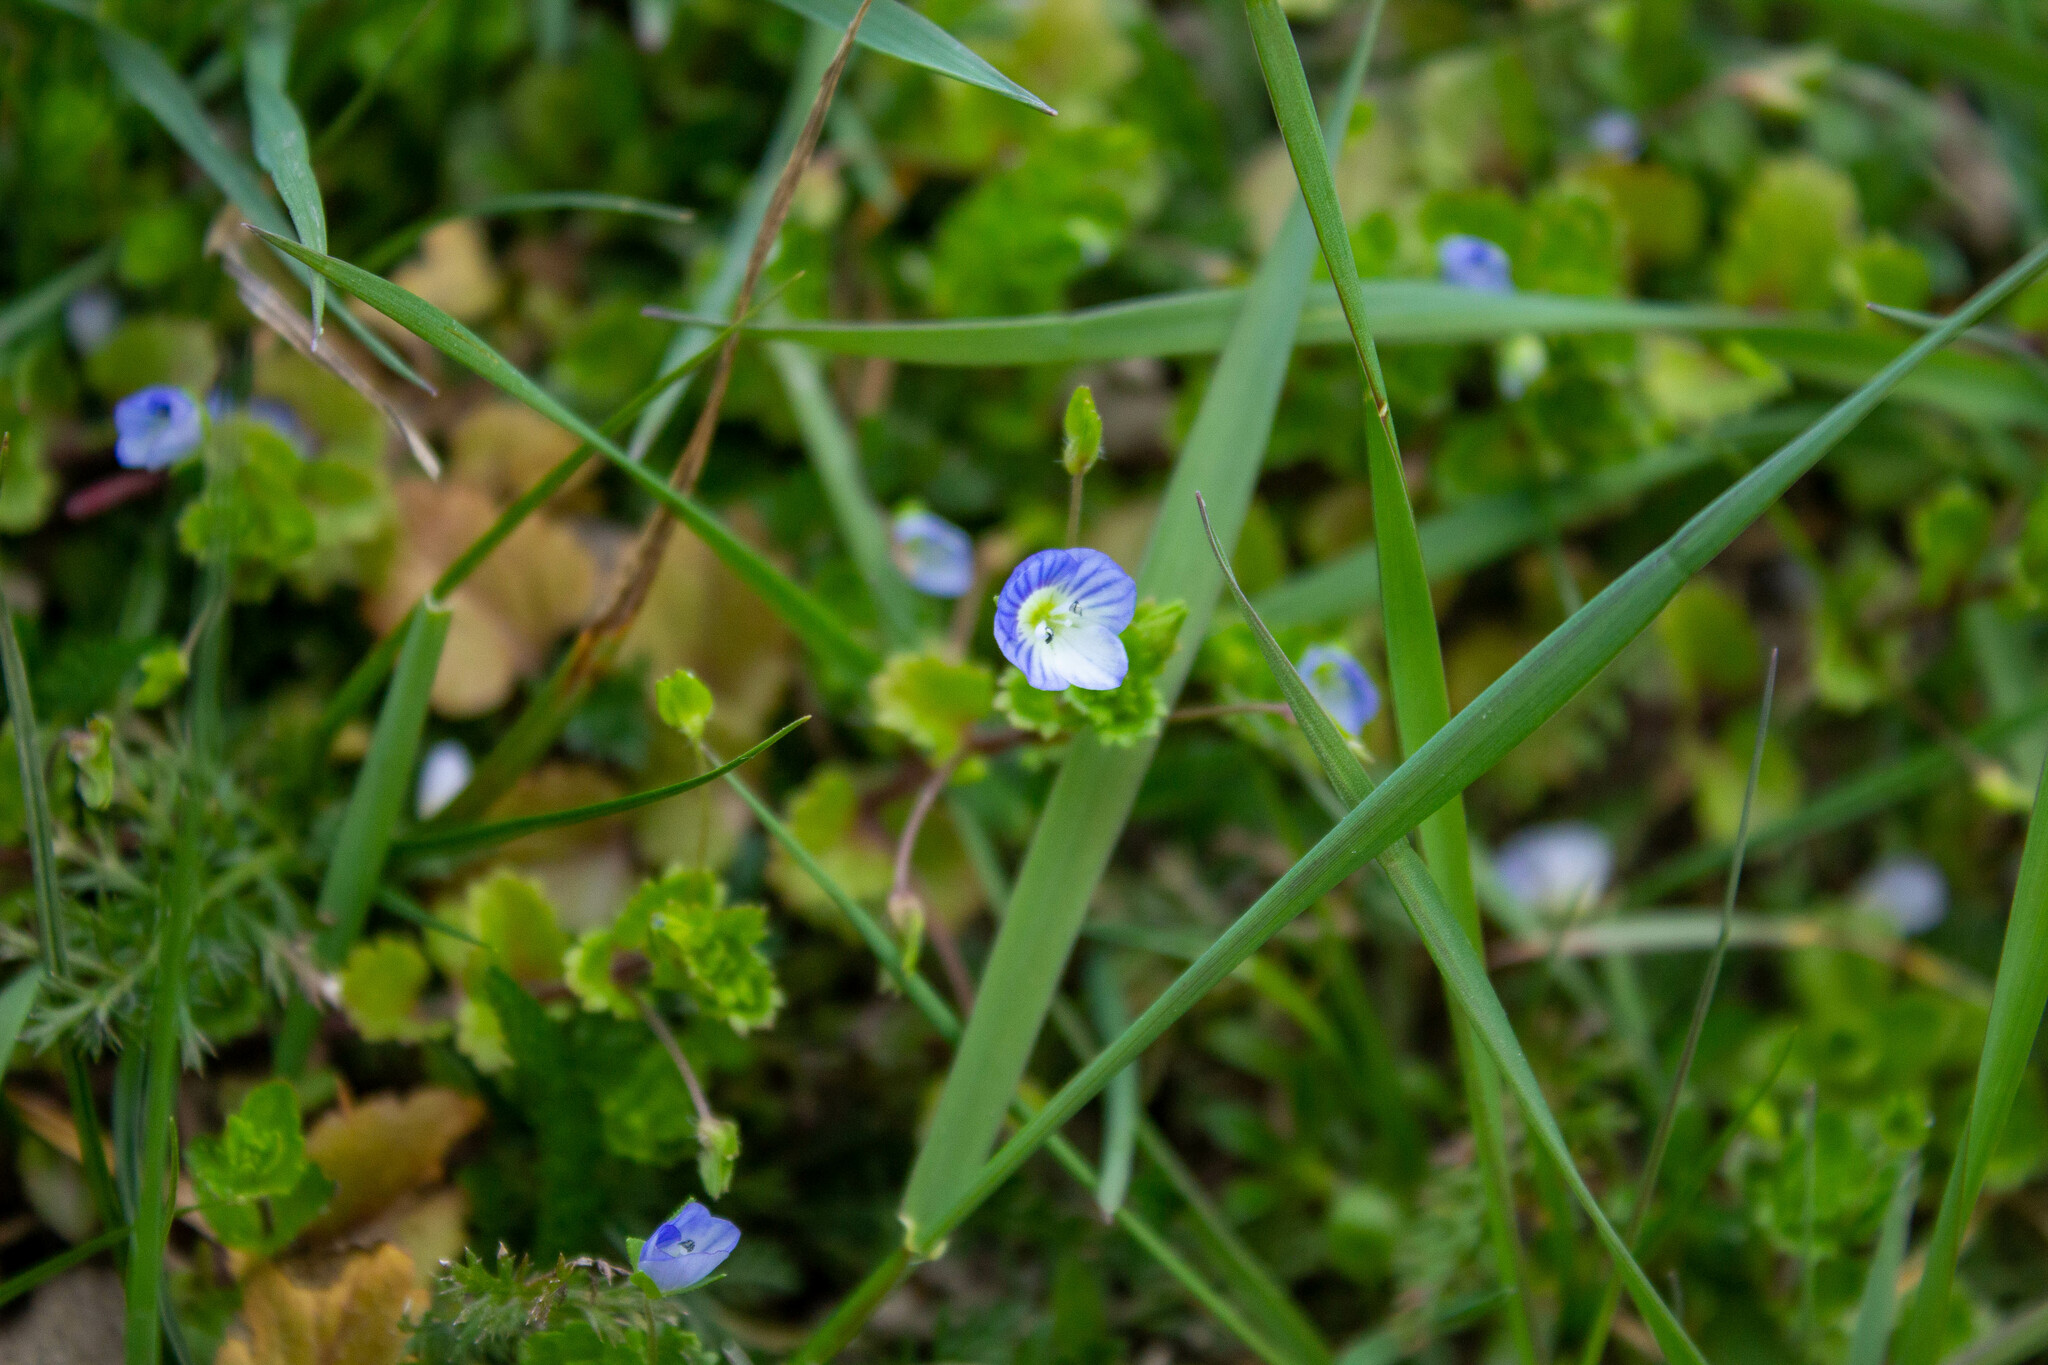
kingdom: Plantae
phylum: Tracheophyta
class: Magnoliopsida
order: Lamiales
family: Plantaginaceae
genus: Veronica
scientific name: Veronica persica
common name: Common field-speedwell
